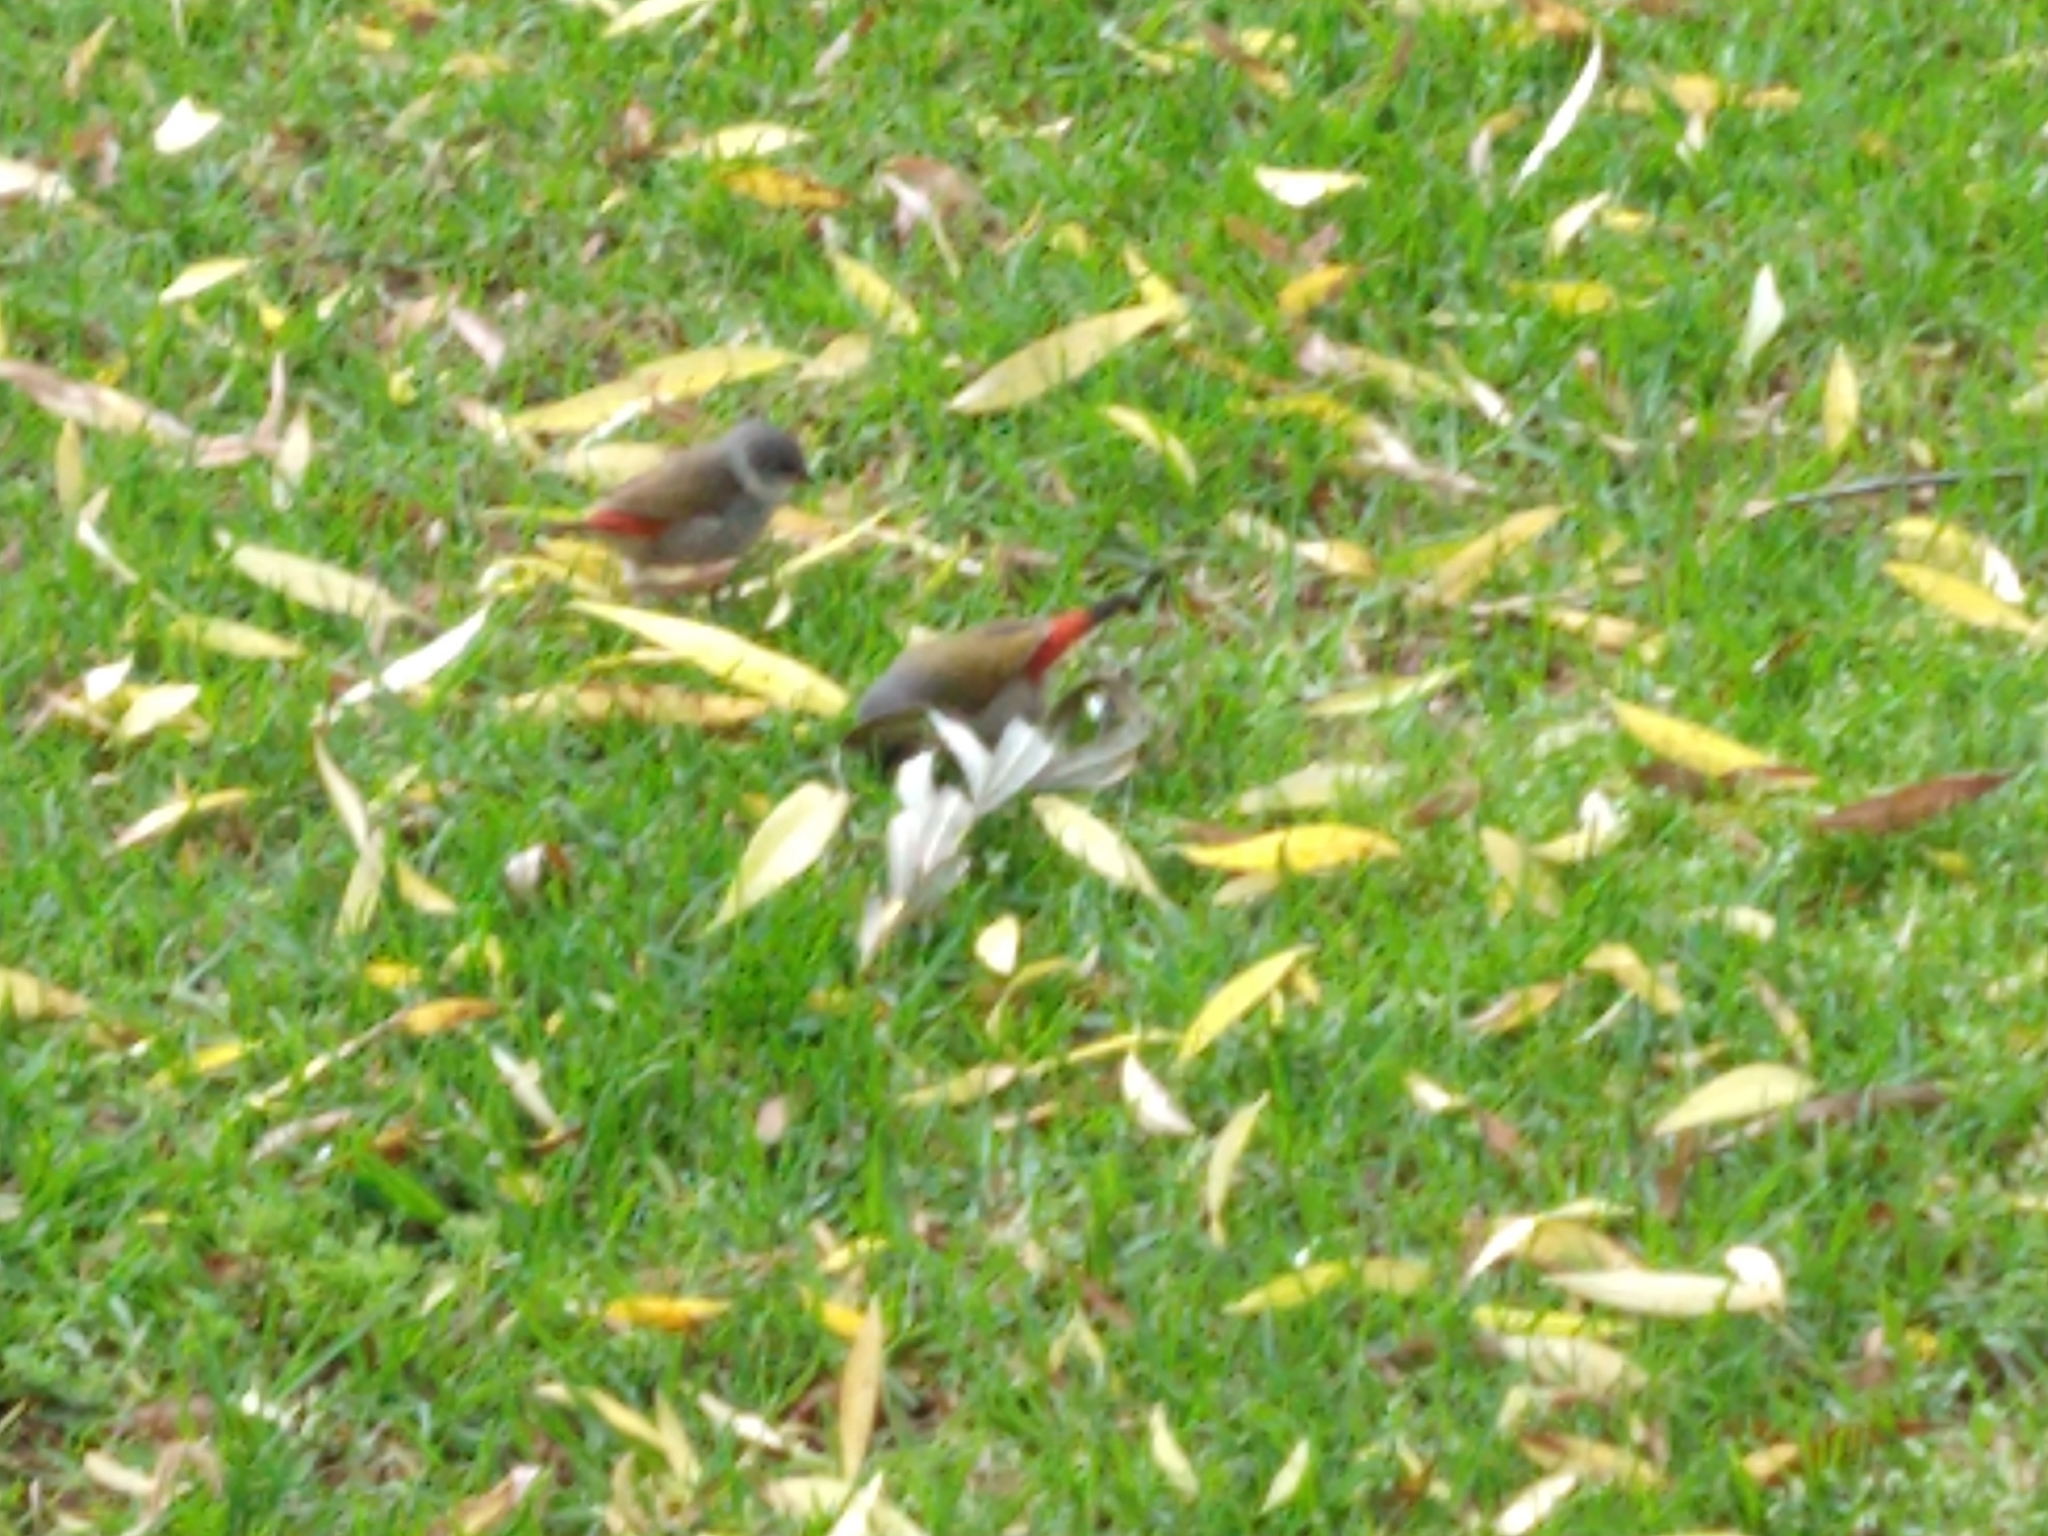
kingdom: Animalia
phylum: Chordata
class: Aves
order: Passeriformes
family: Estrildidae
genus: Coccopygia
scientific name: Coccopygia melanotis
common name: Swee waxbill
